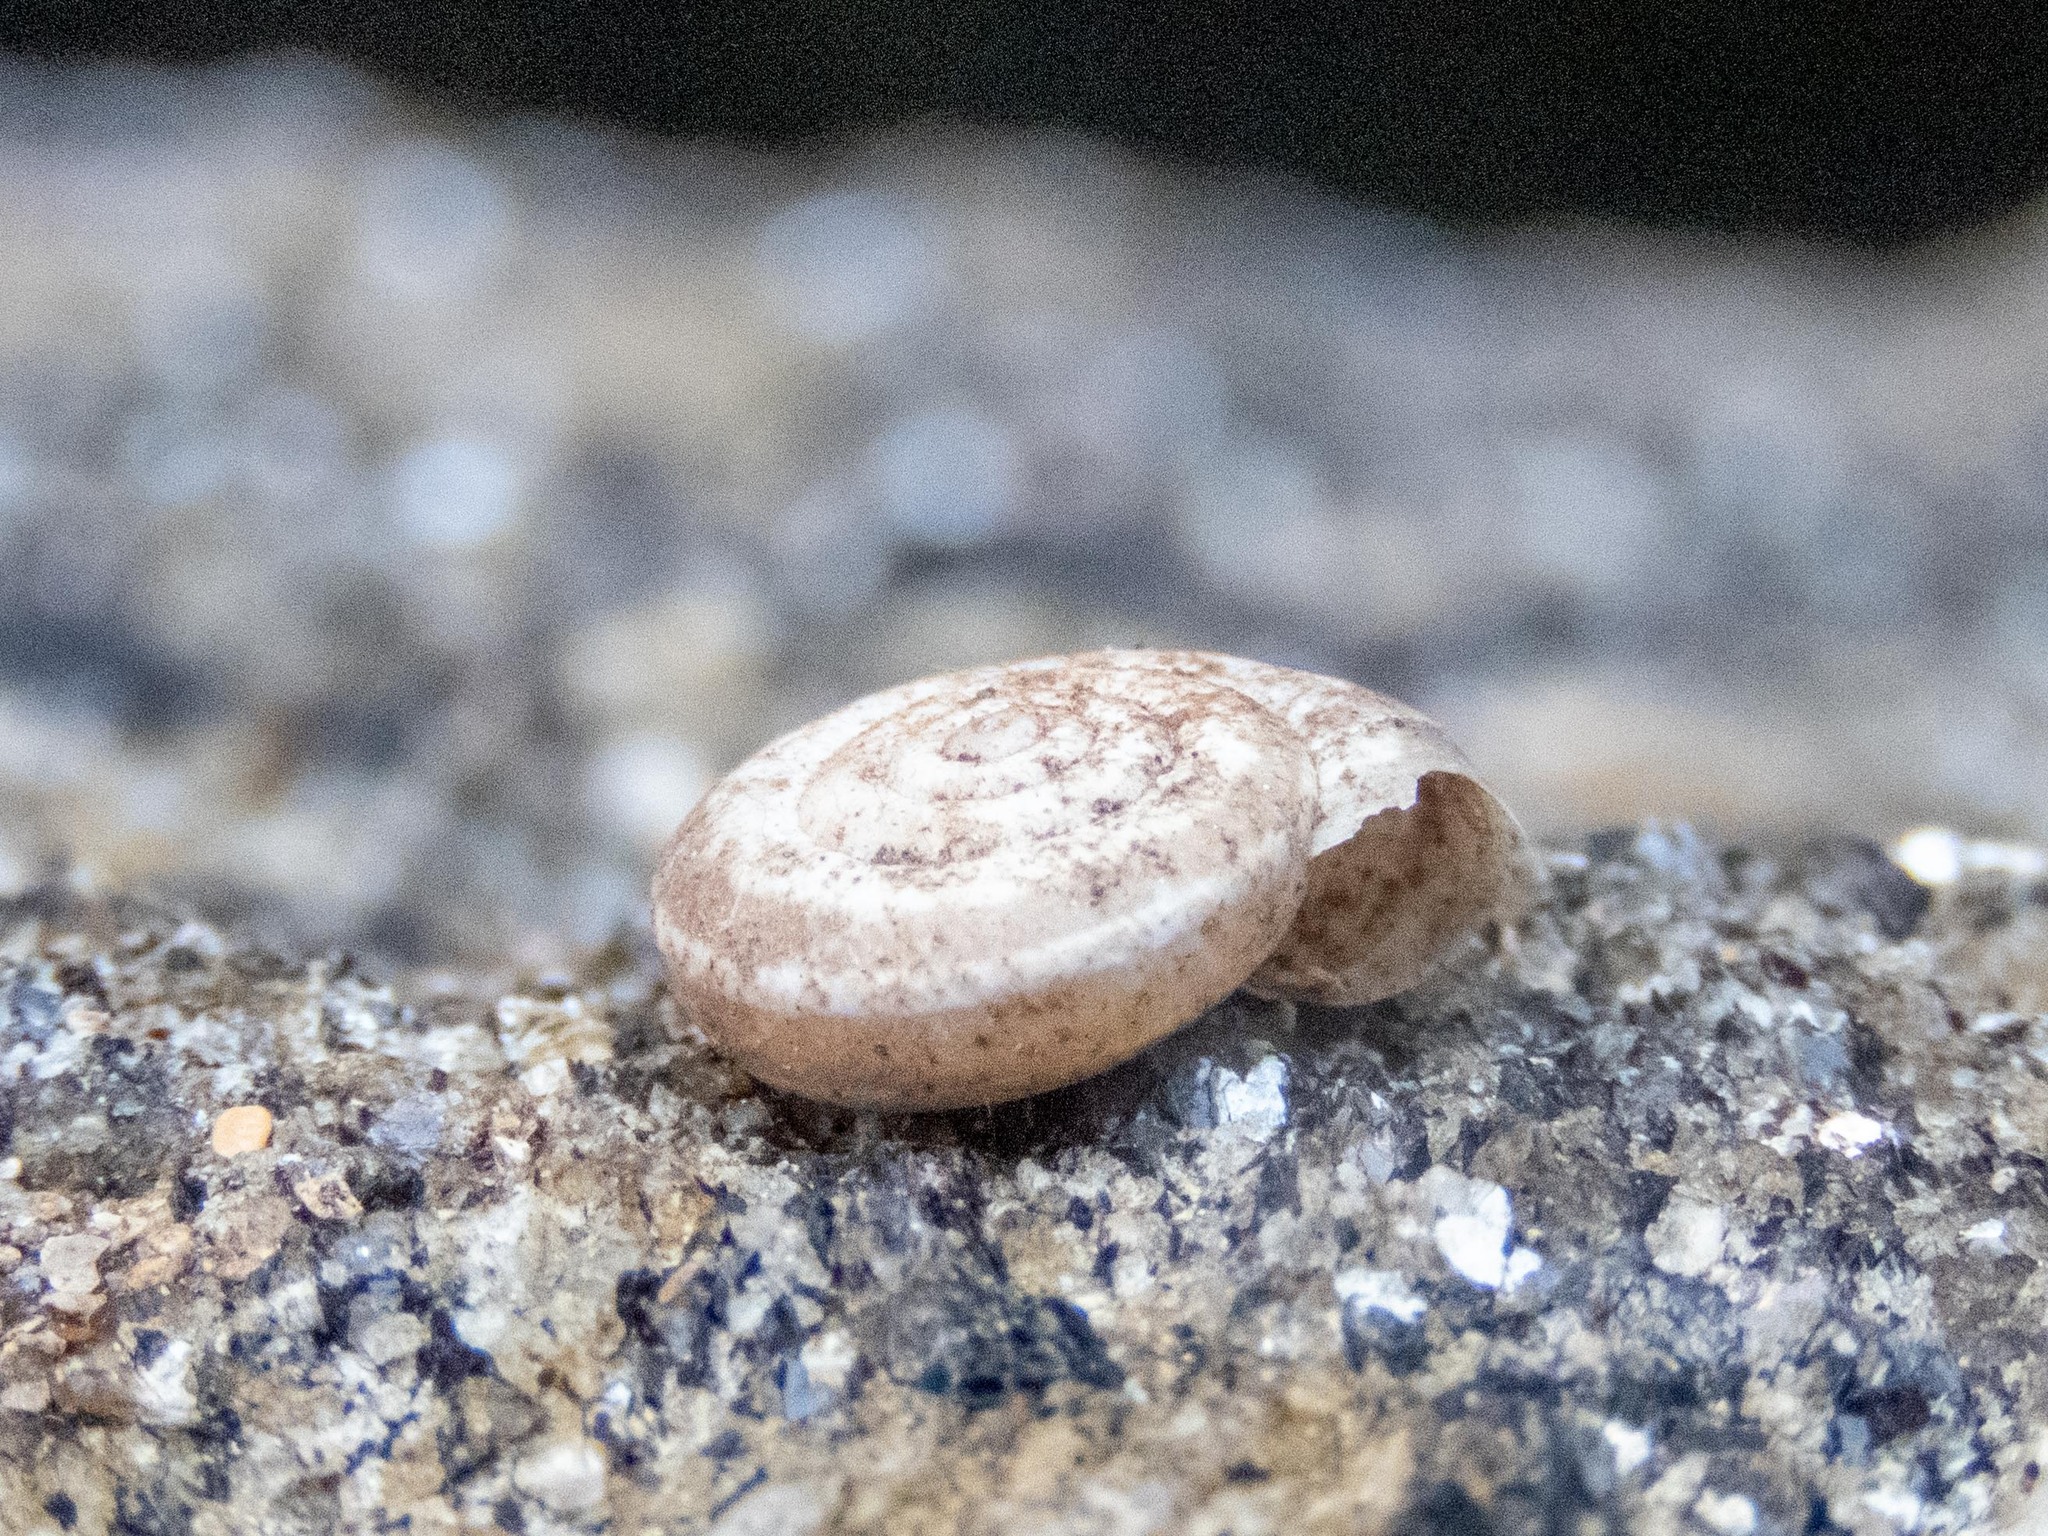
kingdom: Animalia
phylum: Mollusca
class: Gastropoda
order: Stylommatophora
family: Geomitridae
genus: Helicella
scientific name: Helicella itala
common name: Heath snail
